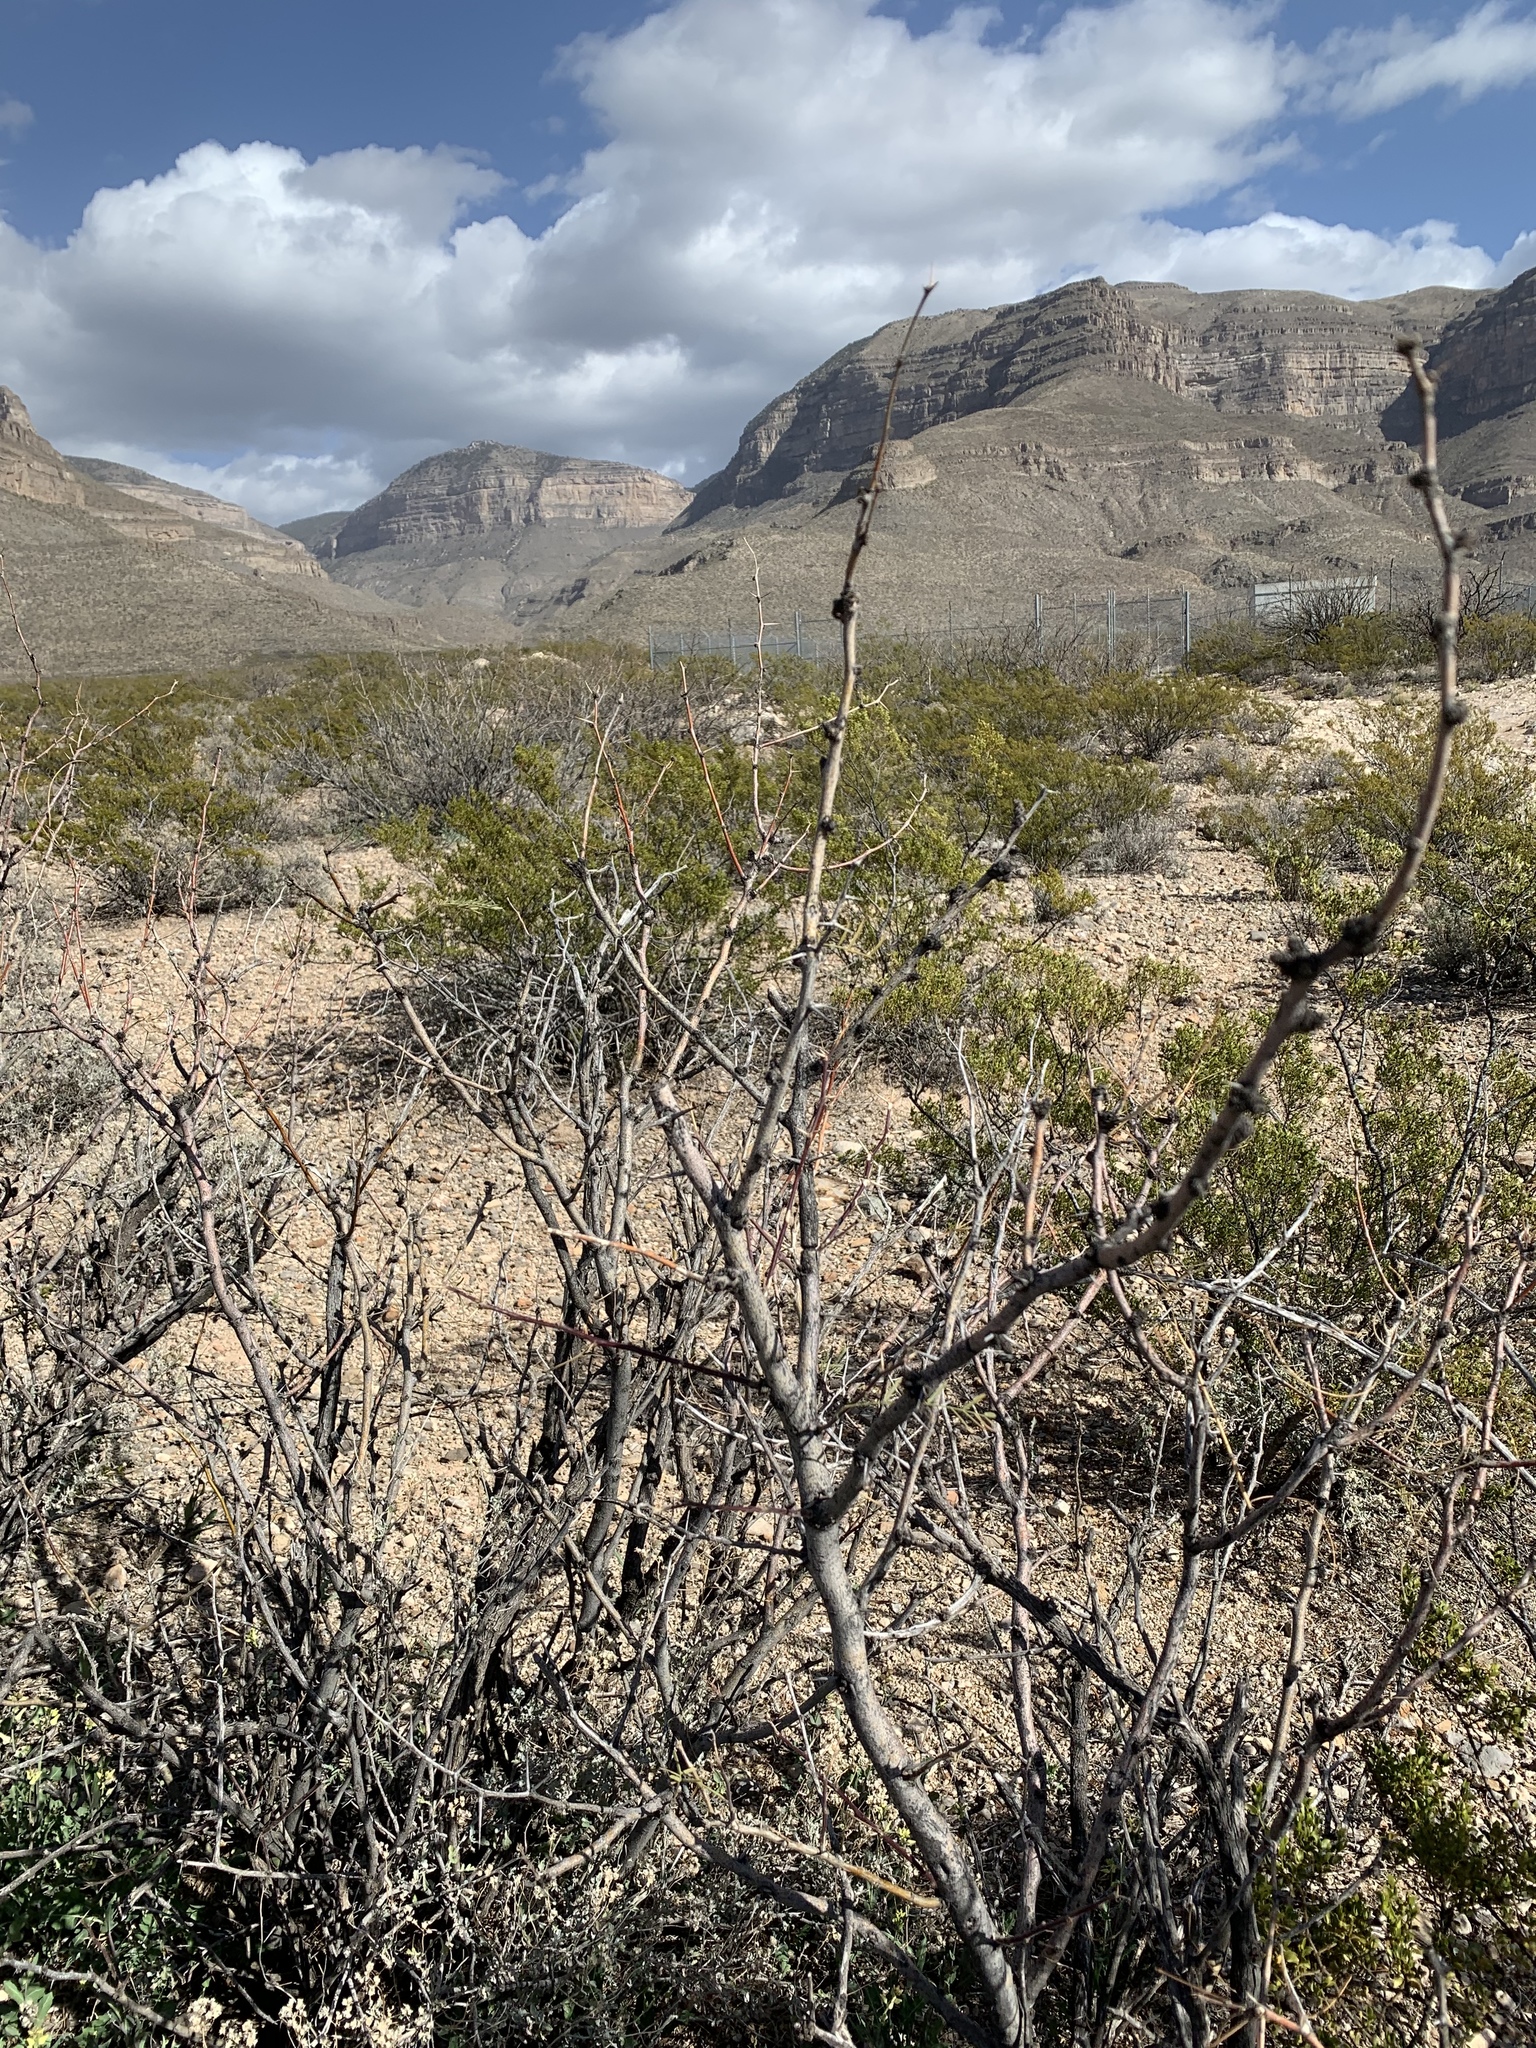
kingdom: Plantae
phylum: Tracheophyta
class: Magnoliopsida
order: Fabales
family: Fabaceae
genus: Prosopis
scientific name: Prosopis glandulosa
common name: Honey mesquite
